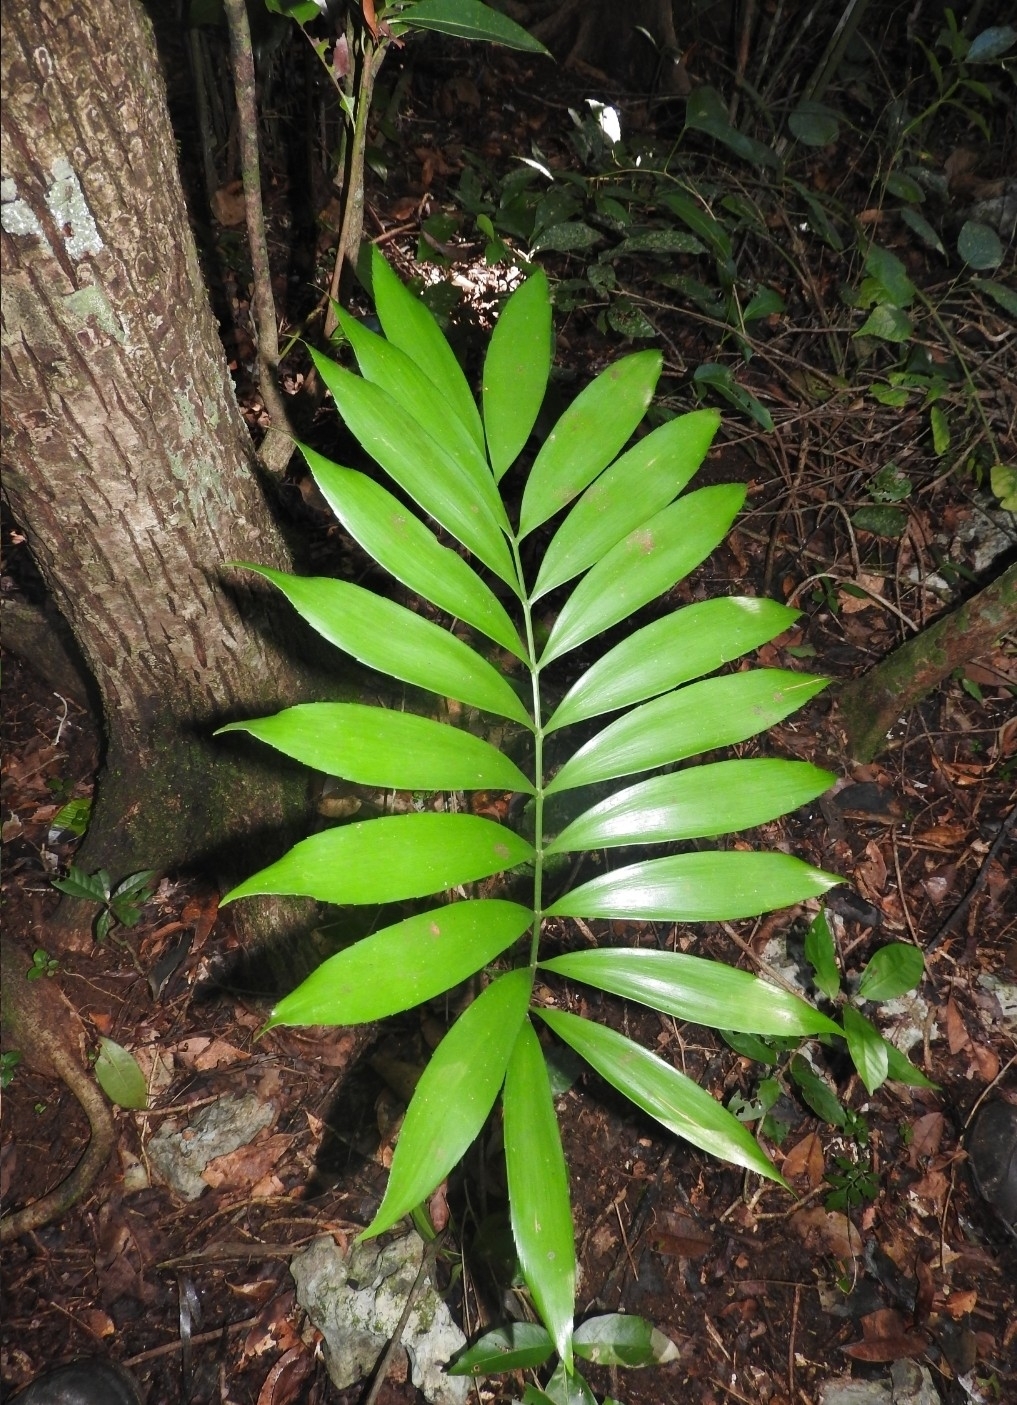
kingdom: Plantae
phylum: Tracheophyta
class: Cycadopsida
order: Cycadales
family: Zamiaceae
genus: Zamia
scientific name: Zamia prasina
